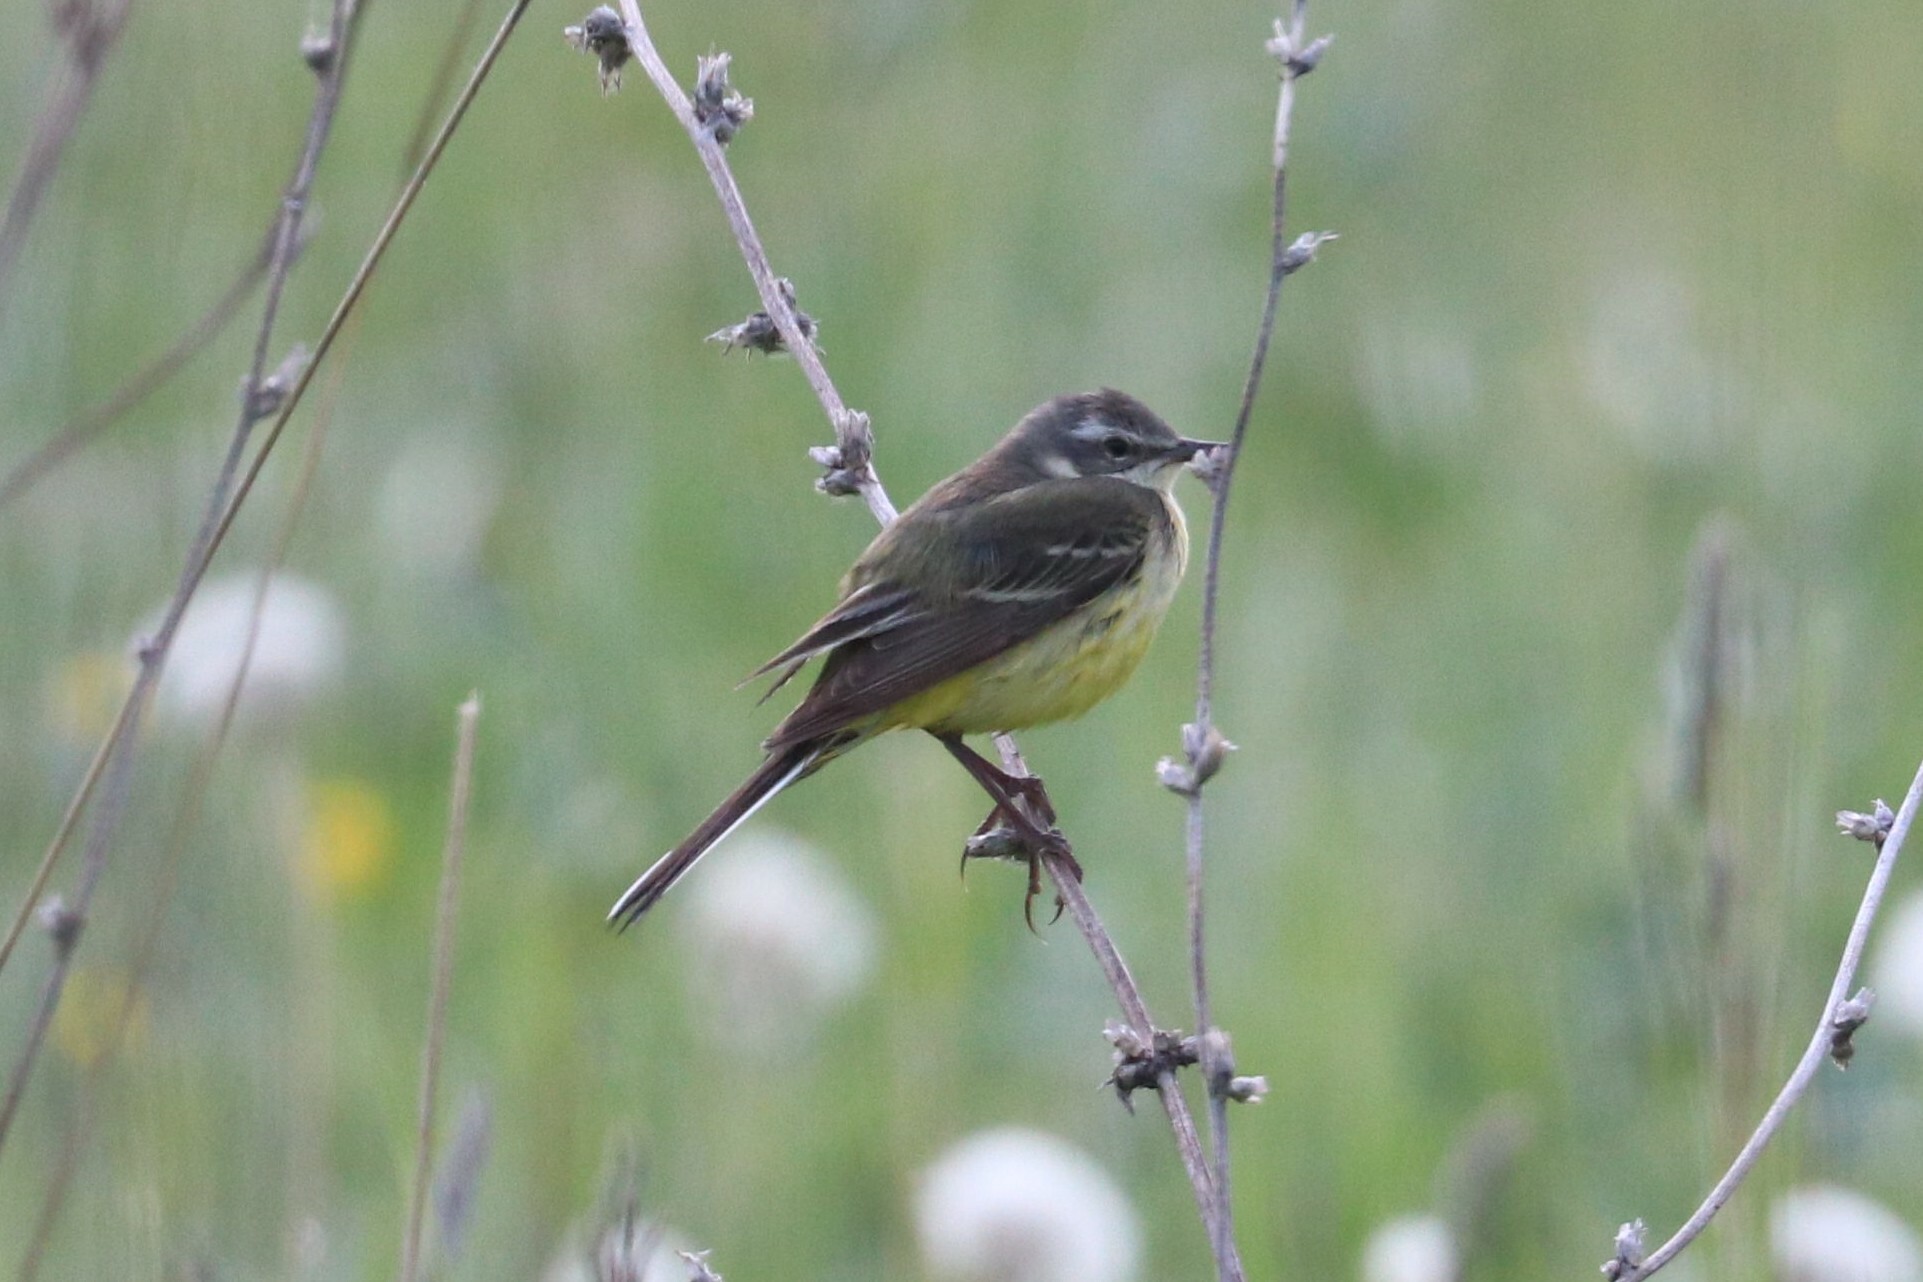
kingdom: Animalia
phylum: Chordata
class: Aves
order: Passeriformes
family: Motacillidae
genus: Motacilla
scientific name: Motacilla flava
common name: Western yellow wagtail
